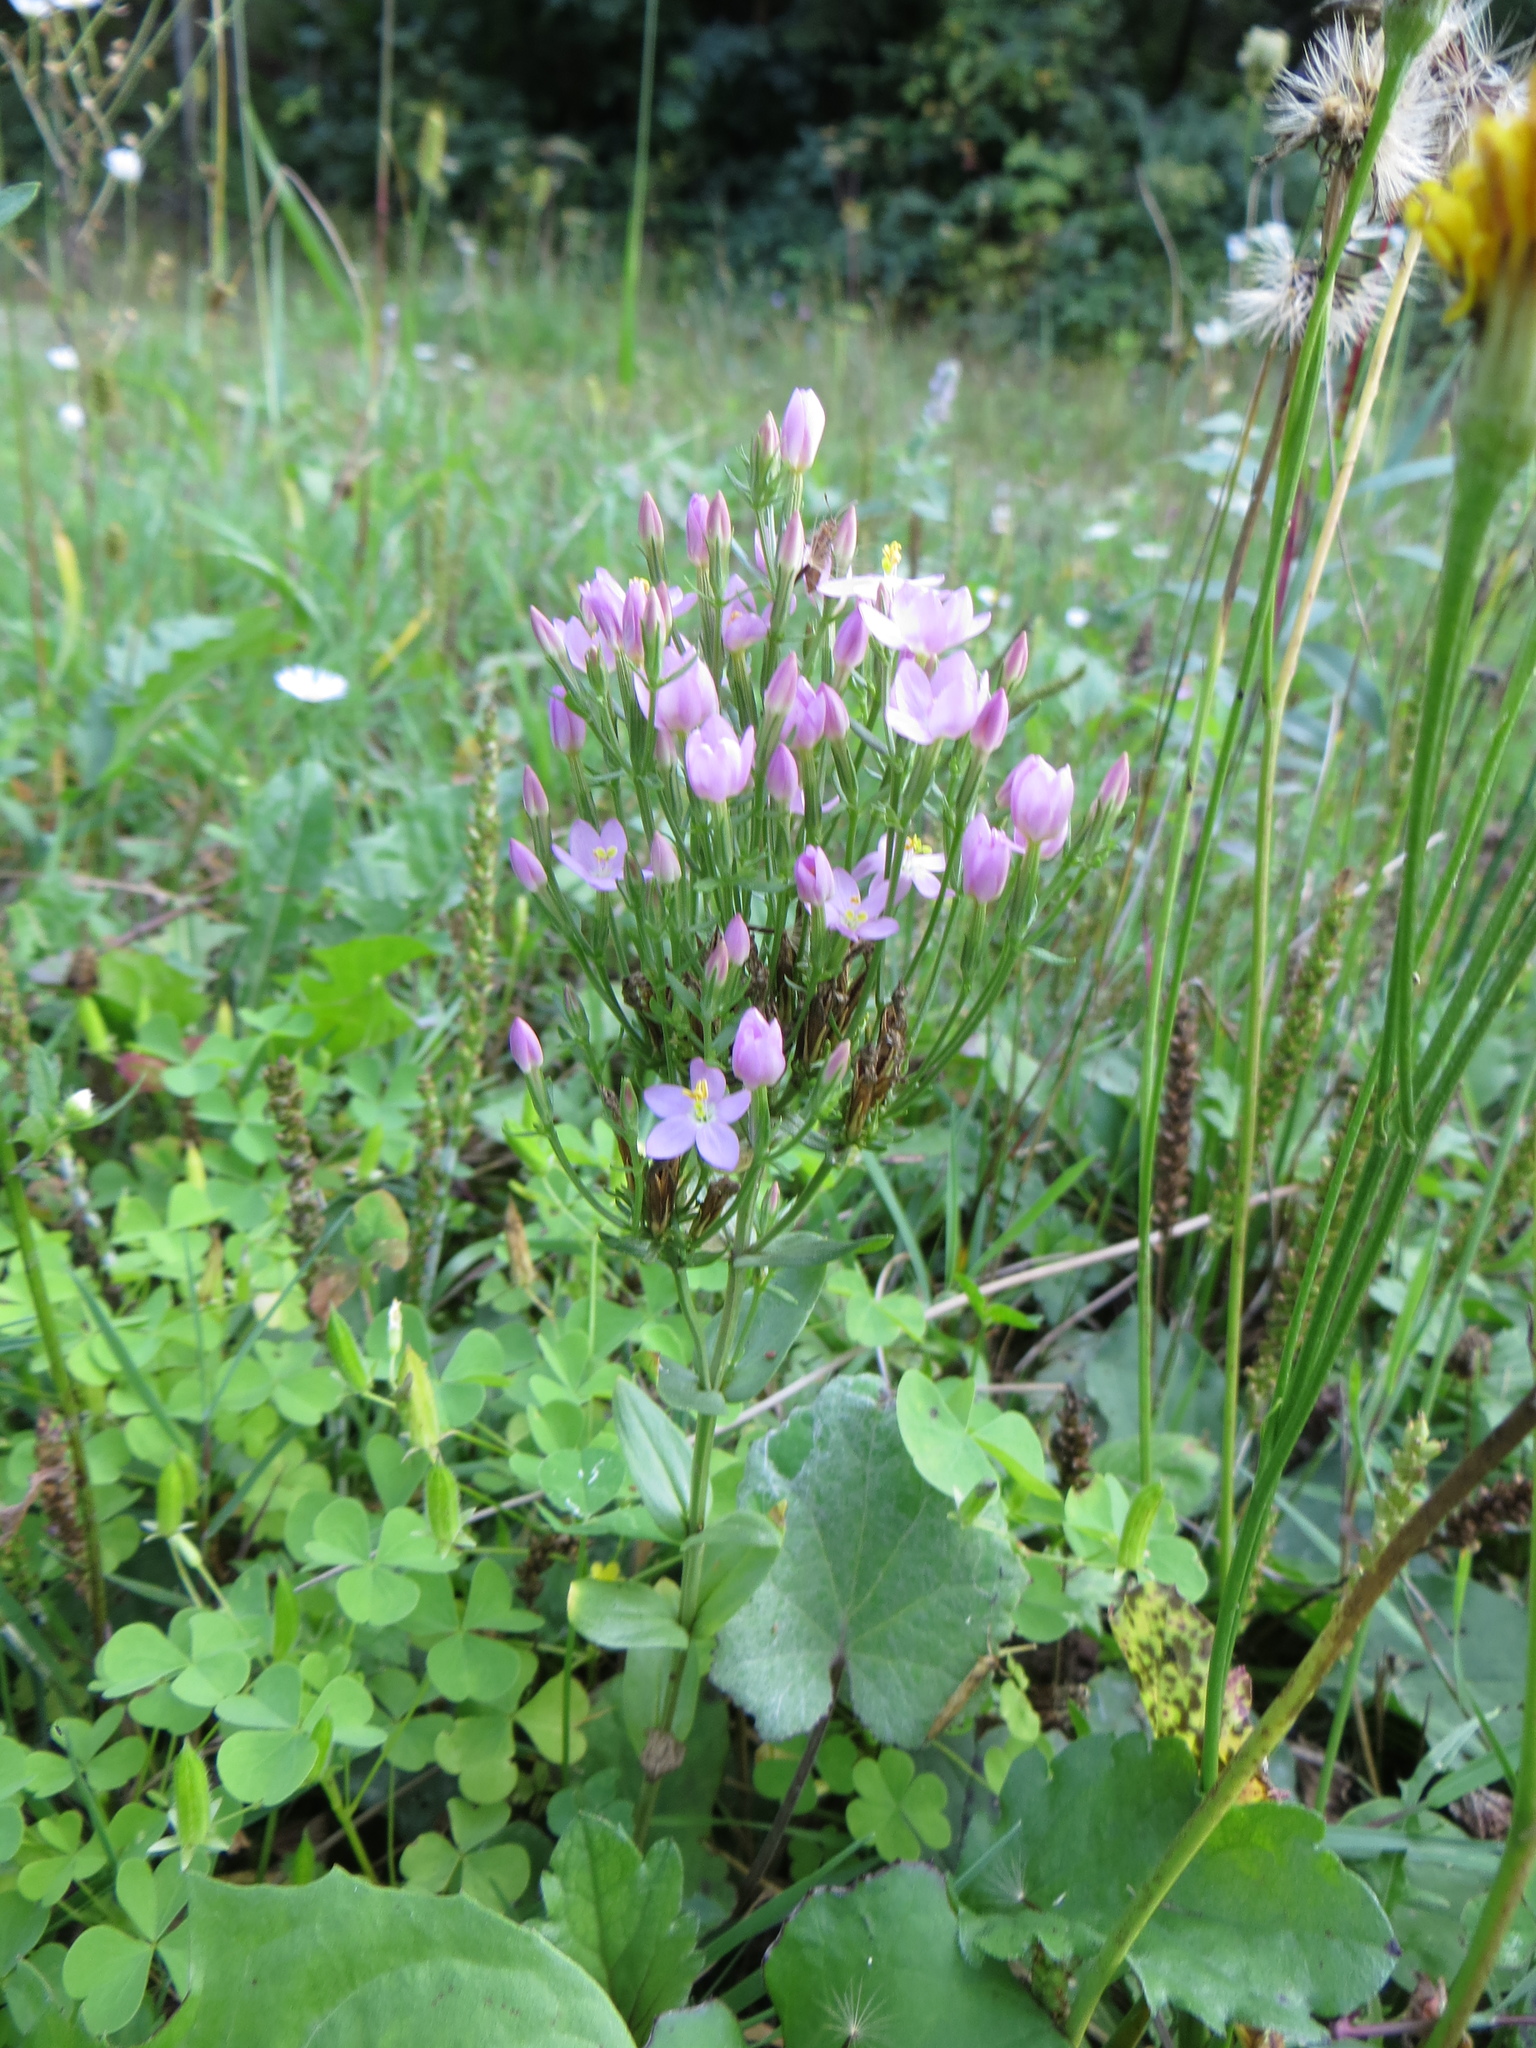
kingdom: Plantae
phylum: Tracheophyta
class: Magnoliopsida
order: Gentianales
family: Gentianaceae
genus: Centaurium
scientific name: Centaurium erythraea
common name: Common centaury
